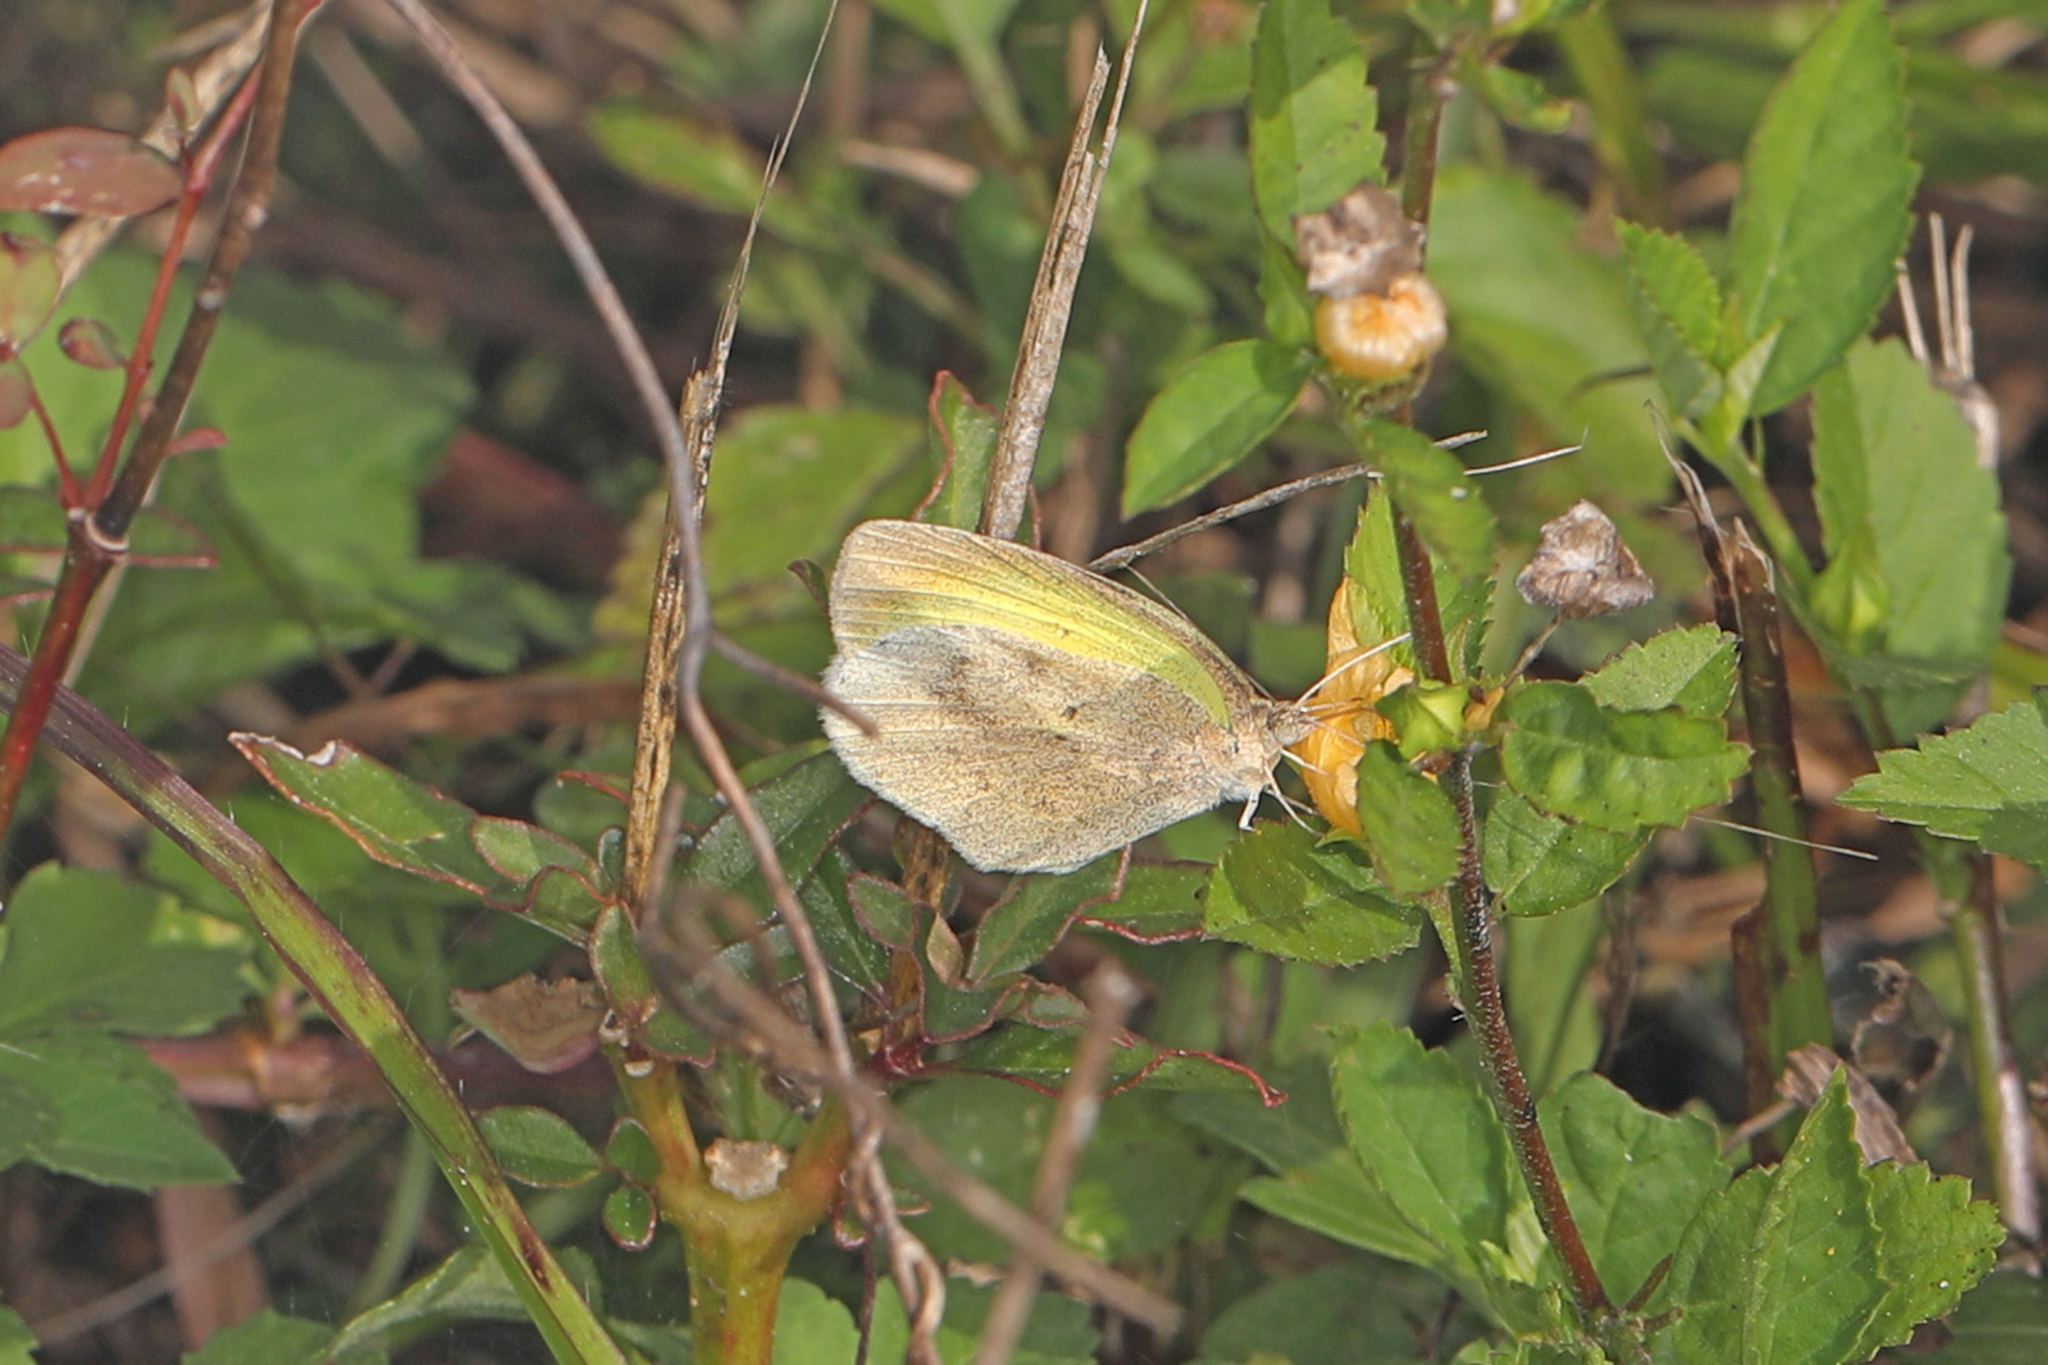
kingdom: Animalia
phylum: Arthropoda
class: Insecta
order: Lepidoptera
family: Pieridae
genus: Eurema
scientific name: Eurema daira
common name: Barred sulphur
